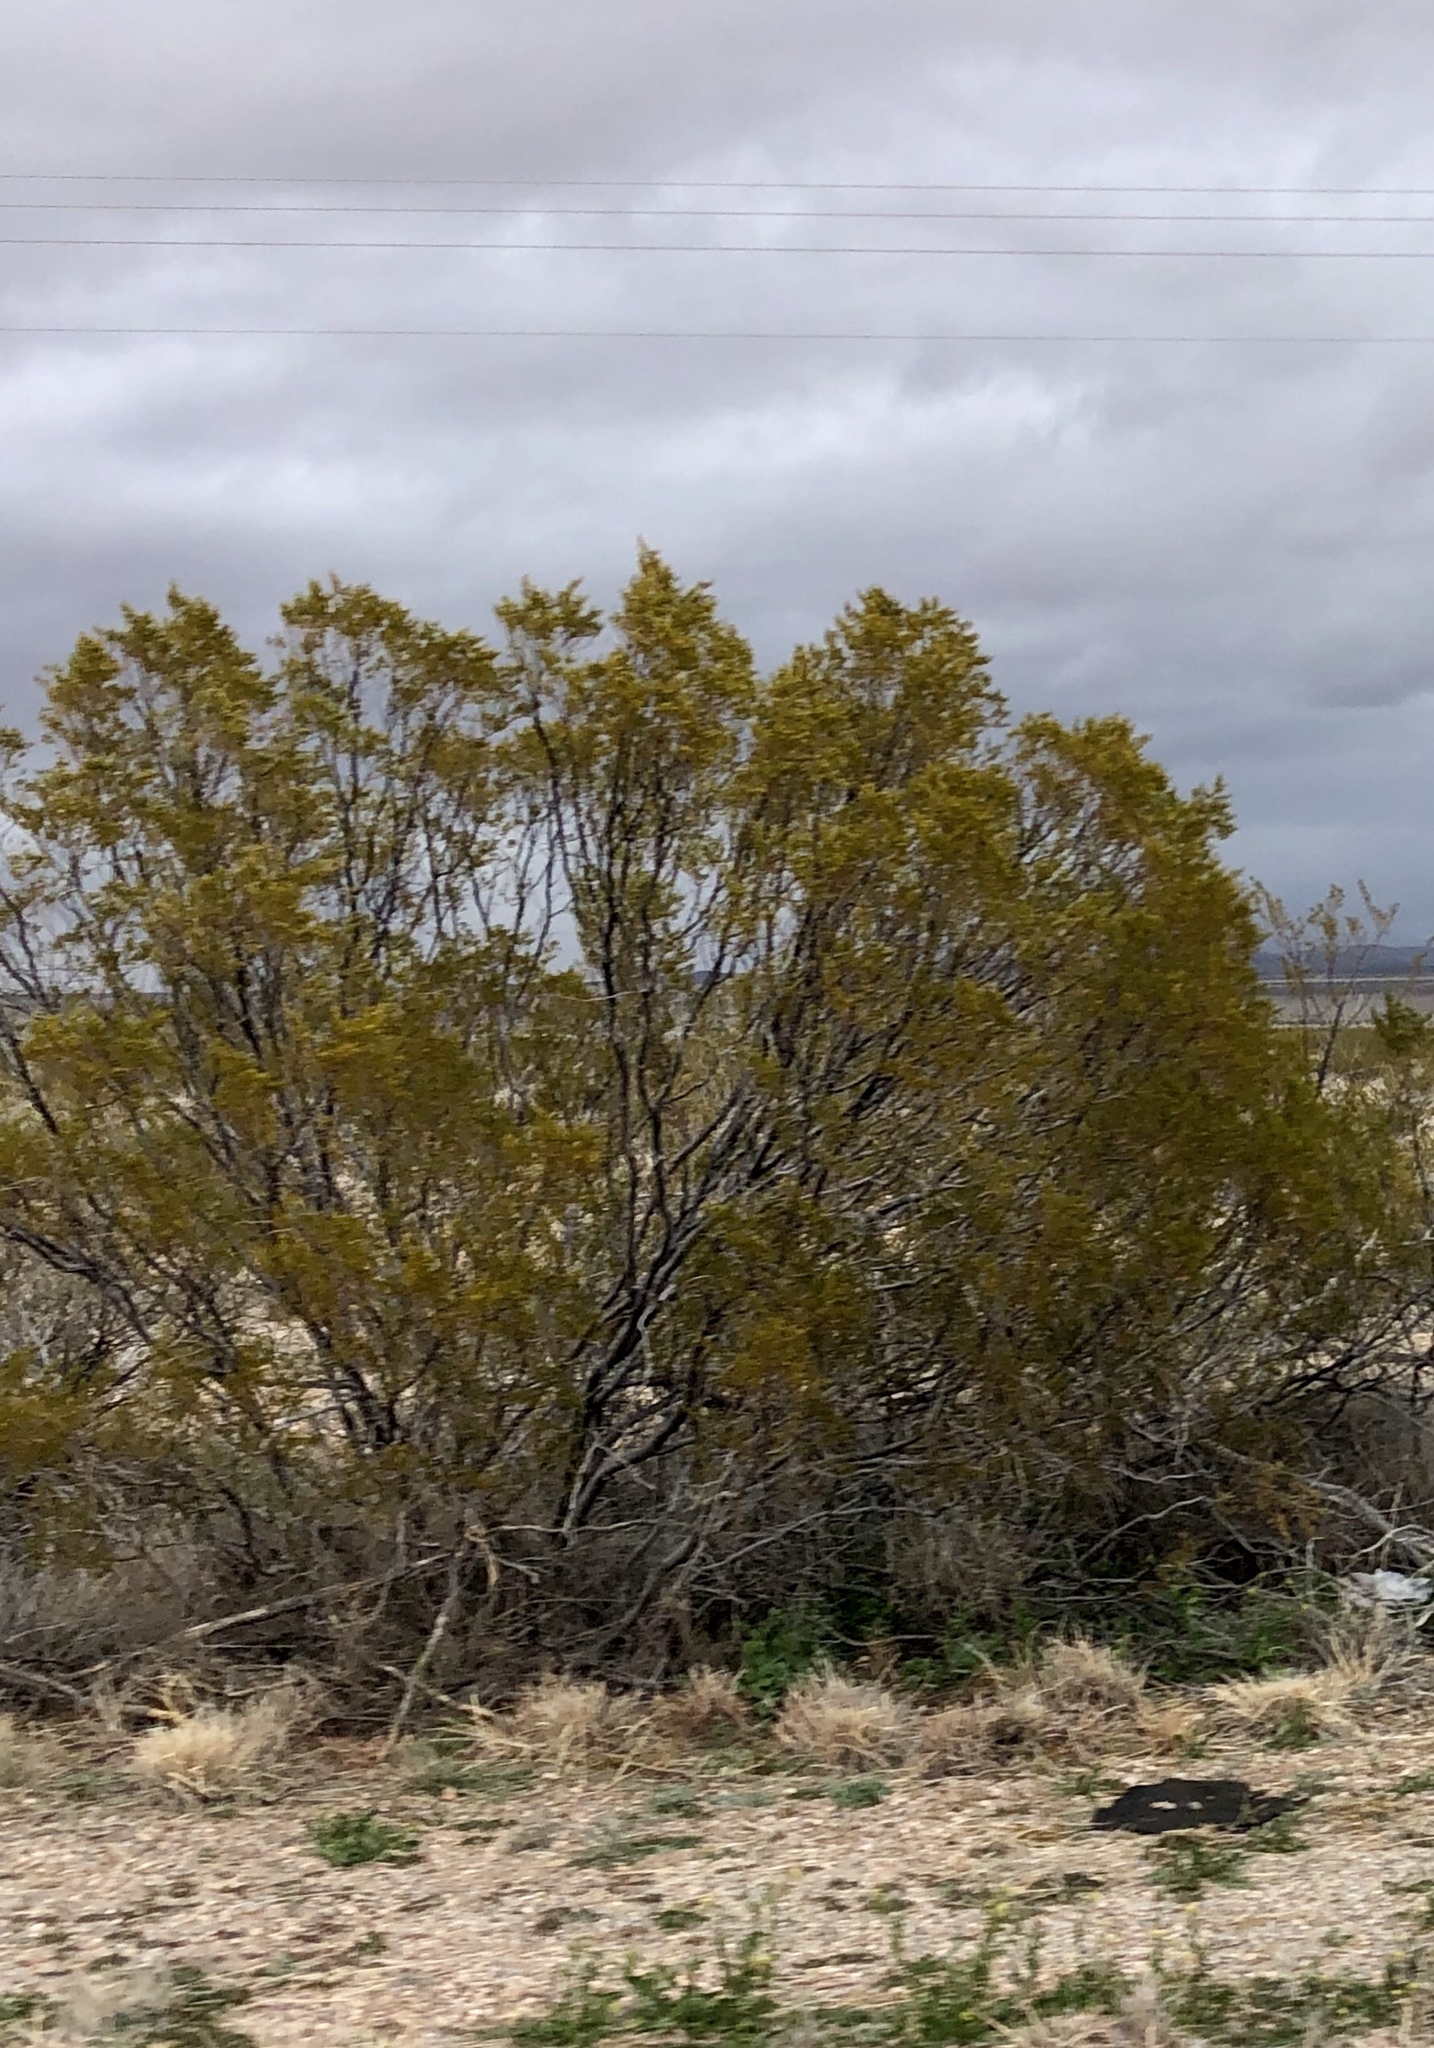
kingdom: Plantae
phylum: Tracheophyta
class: Magnoliopsida
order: Zygophyllales
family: Zygophyllaceae
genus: Larrea
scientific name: Larrea tridentata
